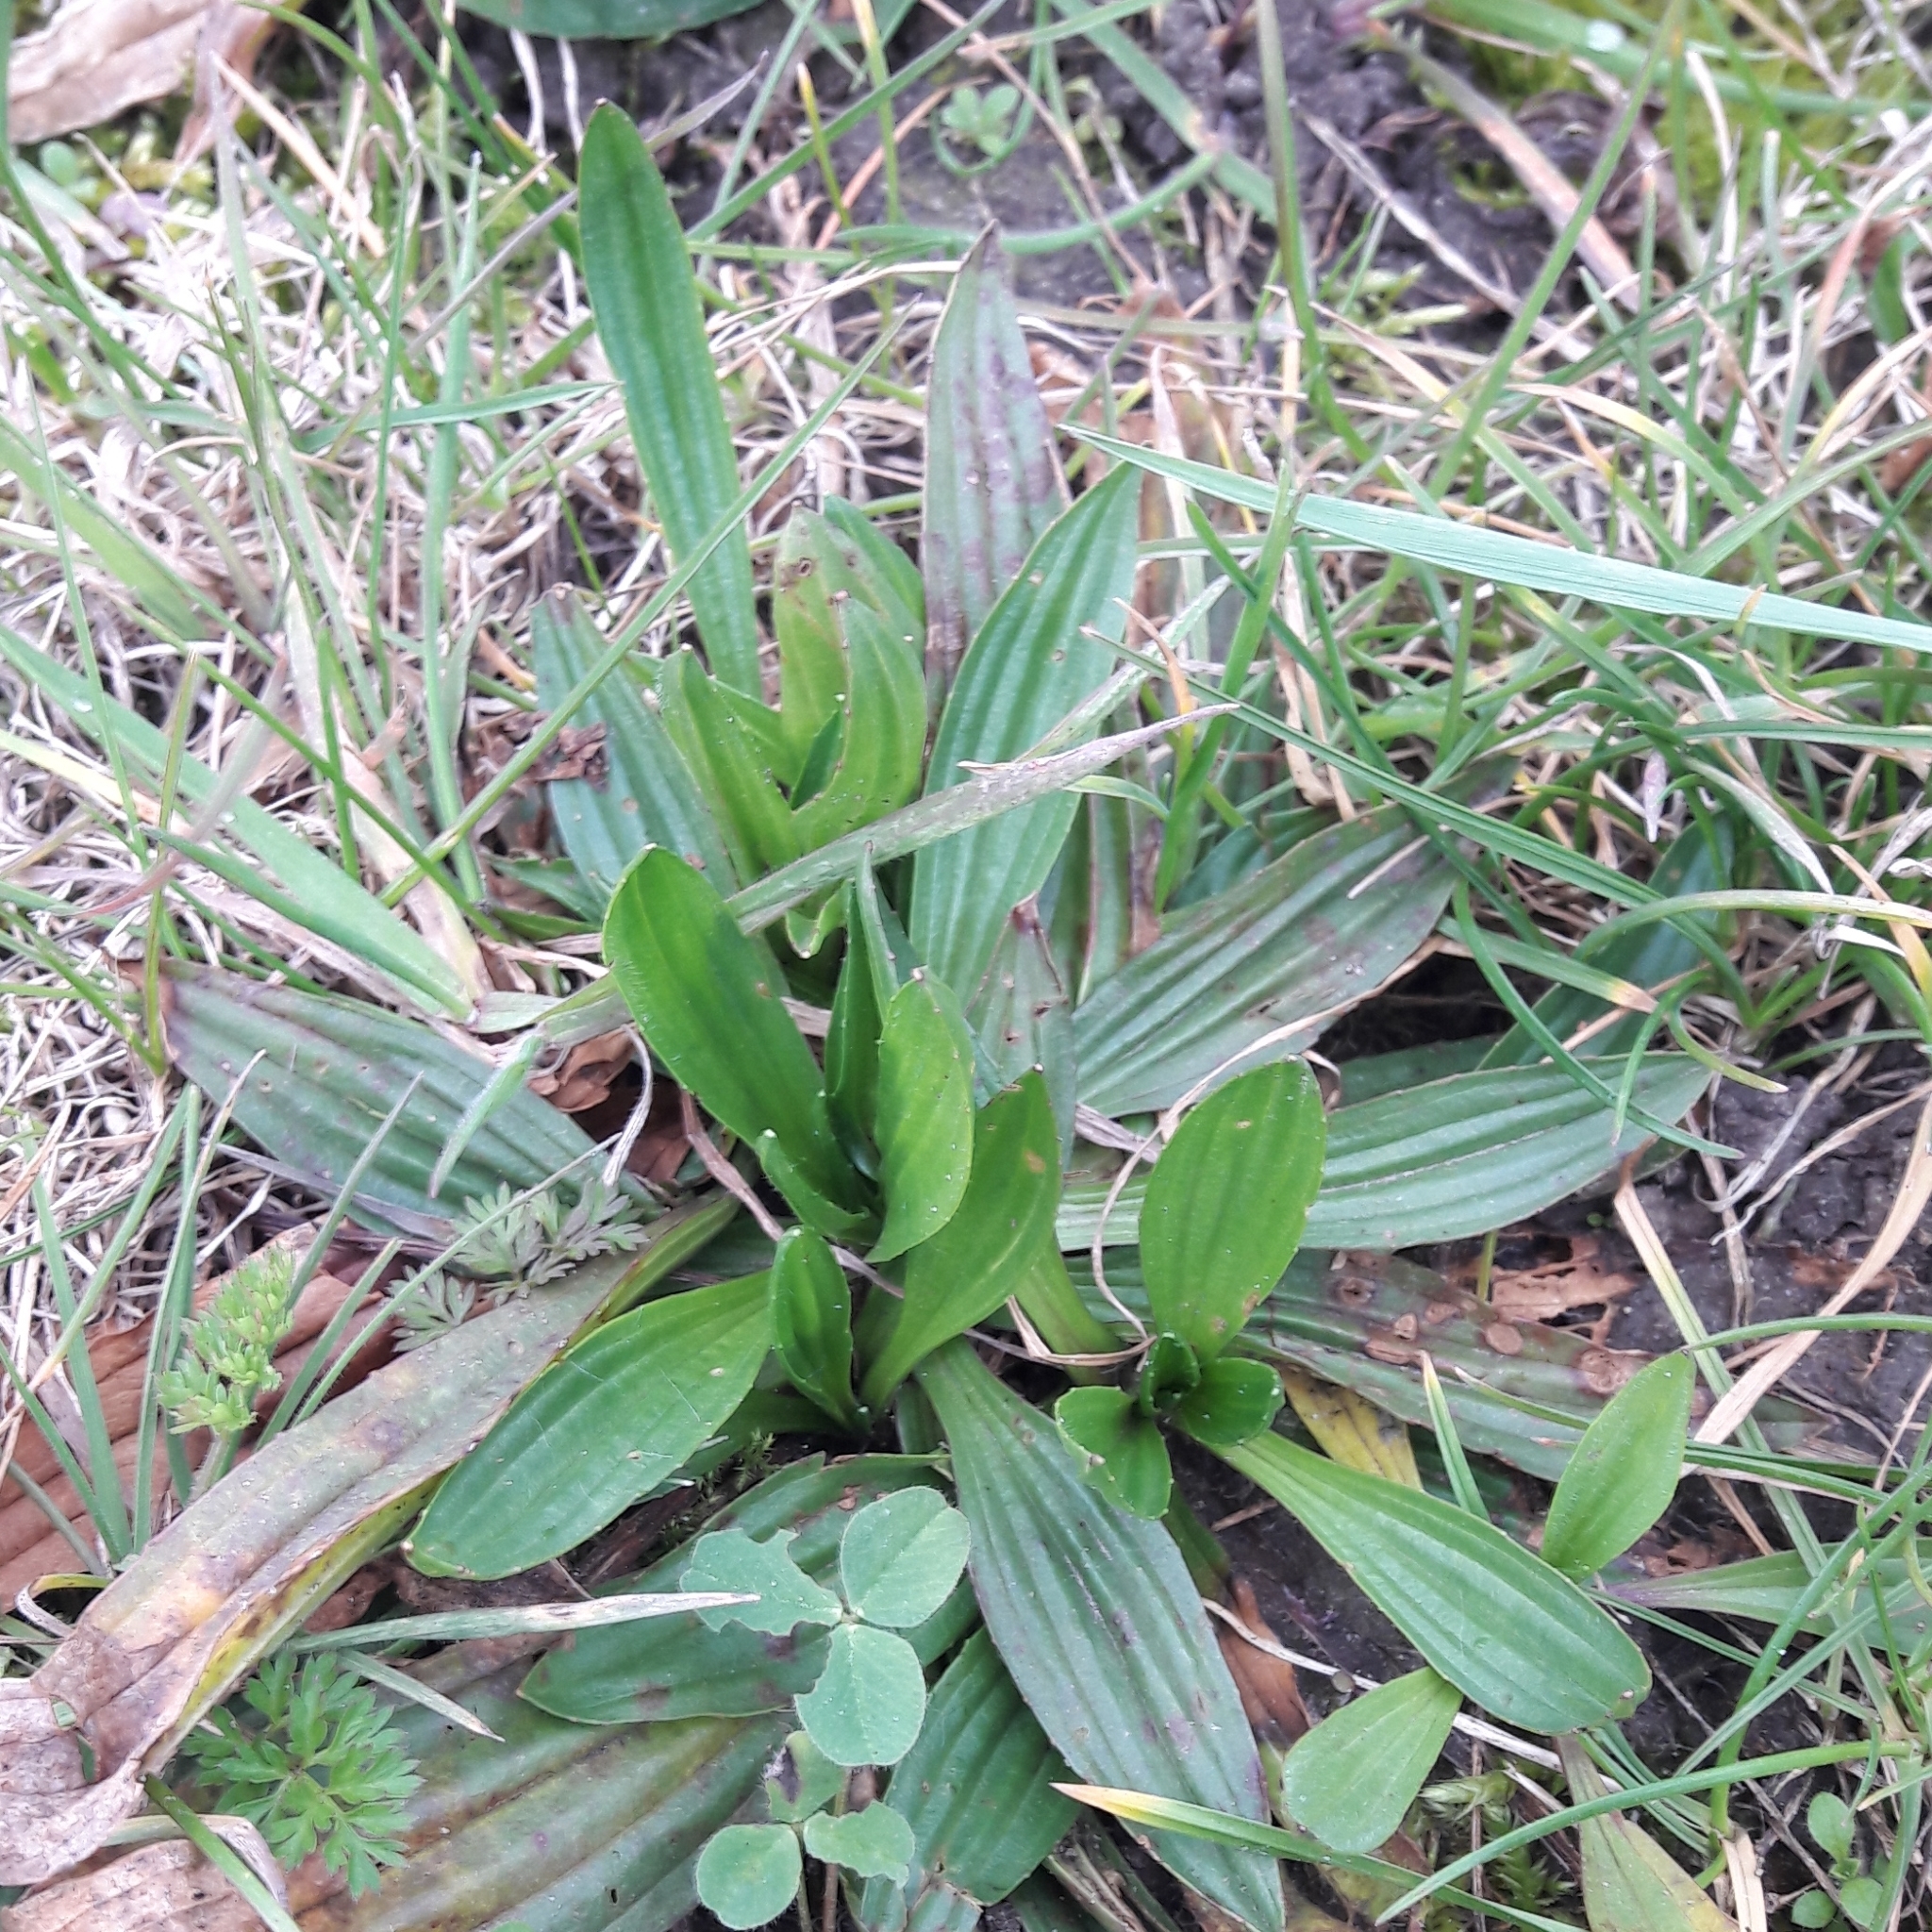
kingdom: Plantae
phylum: Tracheophyta
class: Magnoliopsida
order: Lamiales
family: Plantaginaceae
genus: Plantago
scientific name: Plantago lanceolata
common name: Ribwort plantain
